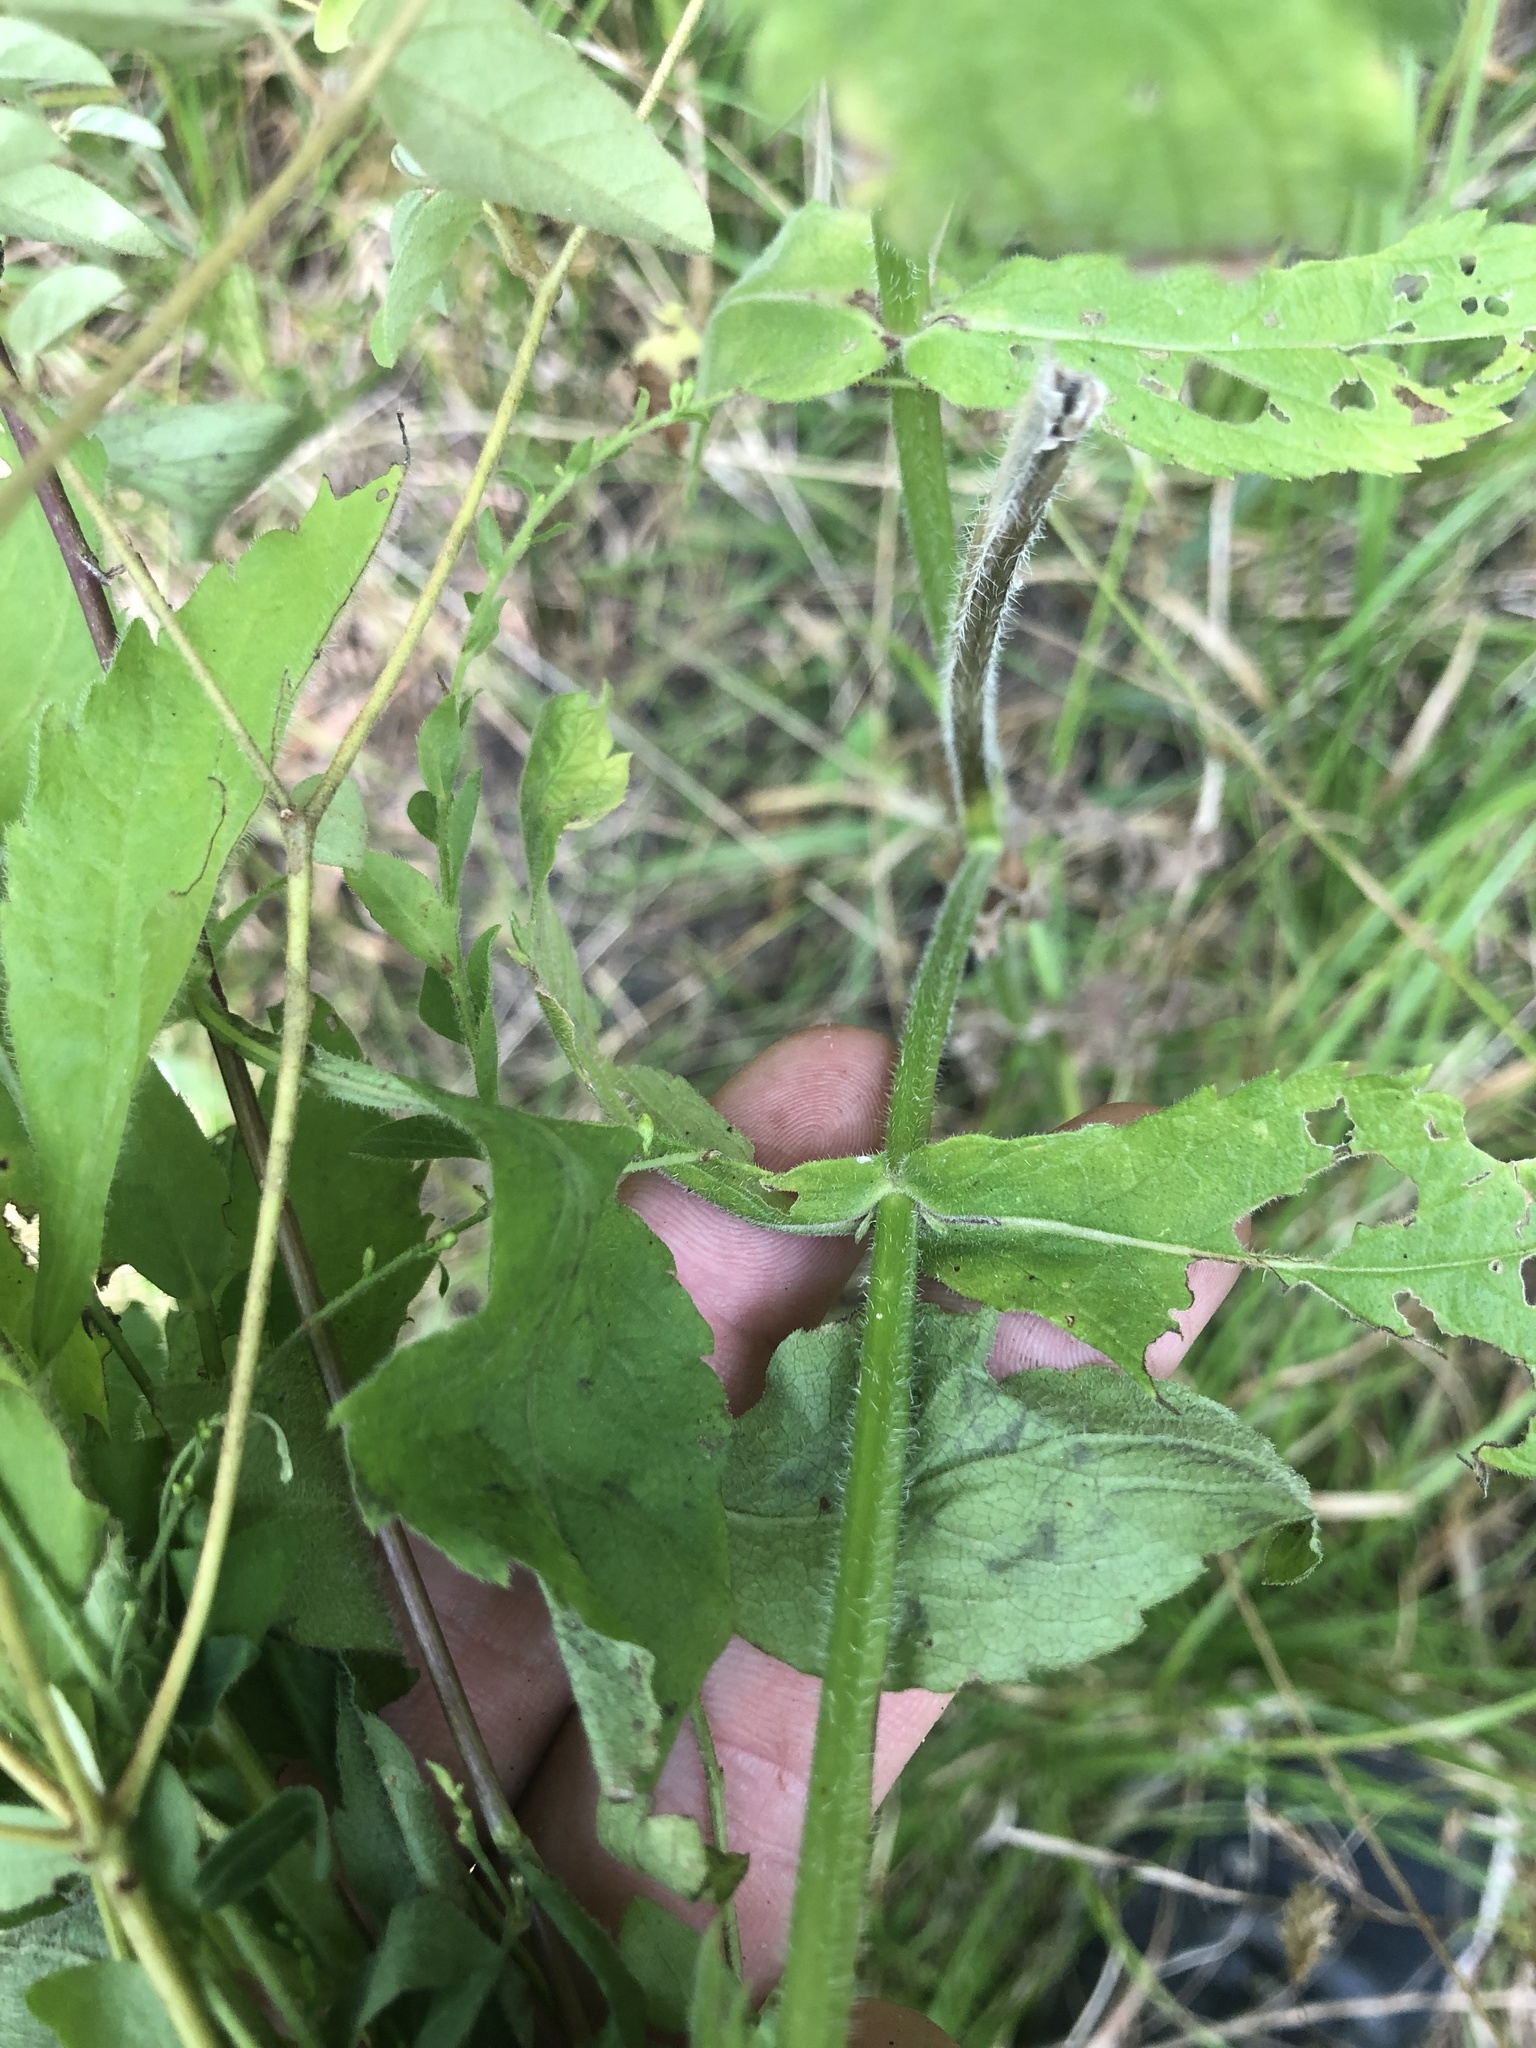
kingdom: Plantae
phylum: Tracheophyta
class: Magnoliopsida
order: Lamiales
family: Verbenaceae
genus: Verbena
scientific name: Verbena incompta
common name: Purpletop vervain
